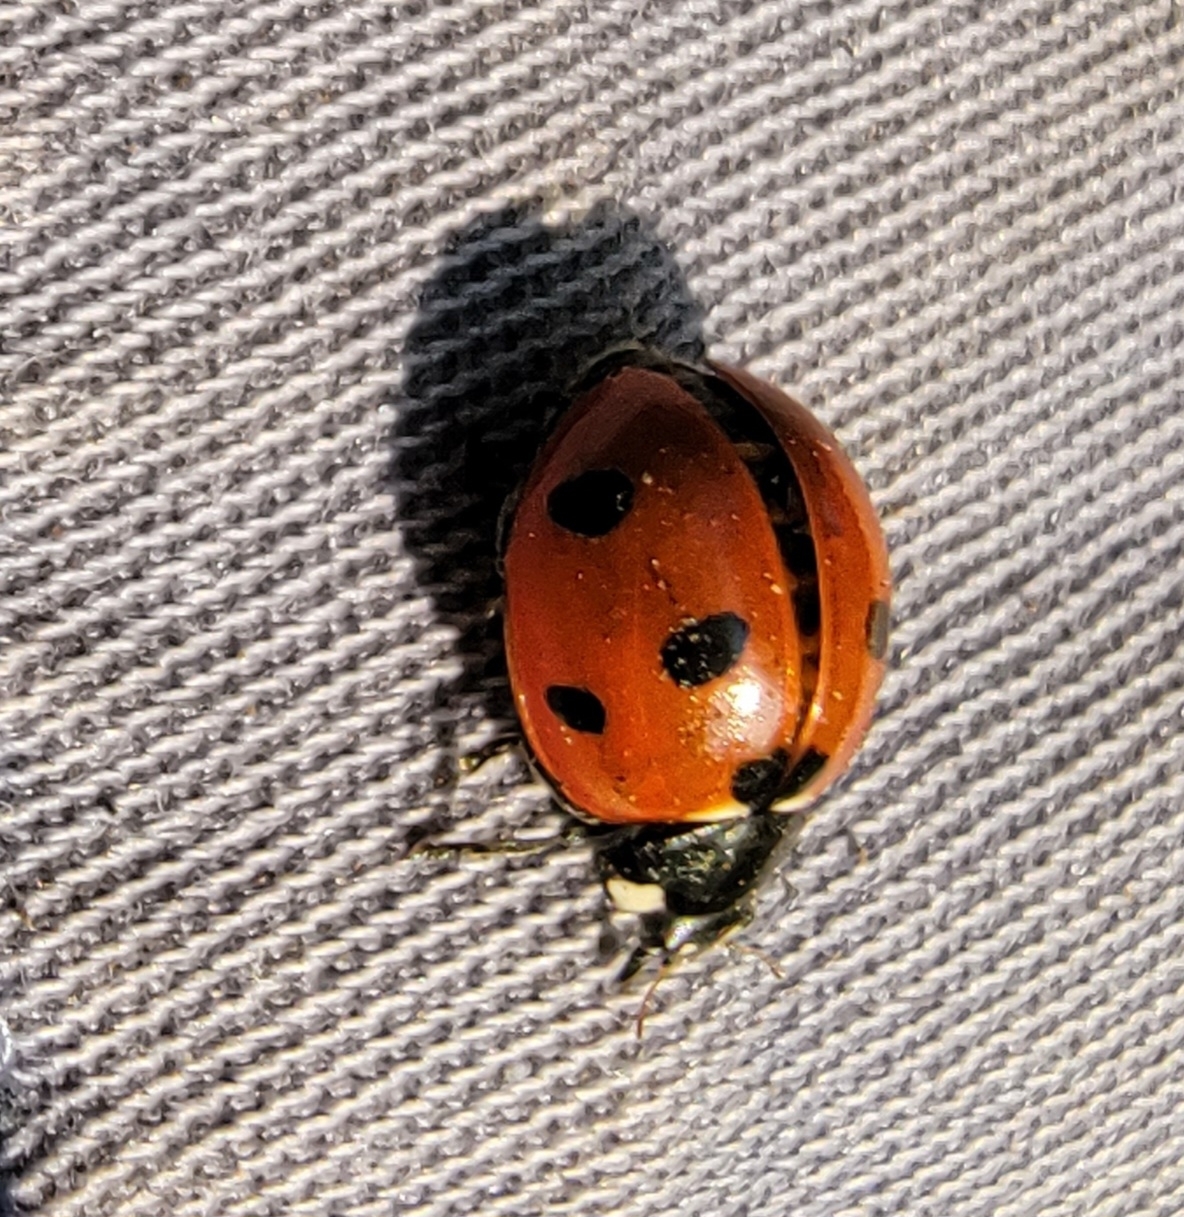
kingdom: Animalia
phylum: Arthropoda
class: Insecta
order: Coleoptera
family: Coccinellidae
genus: Coccinella
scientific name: Coccinella septempunctata
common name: Sevenspotted lady beetle
